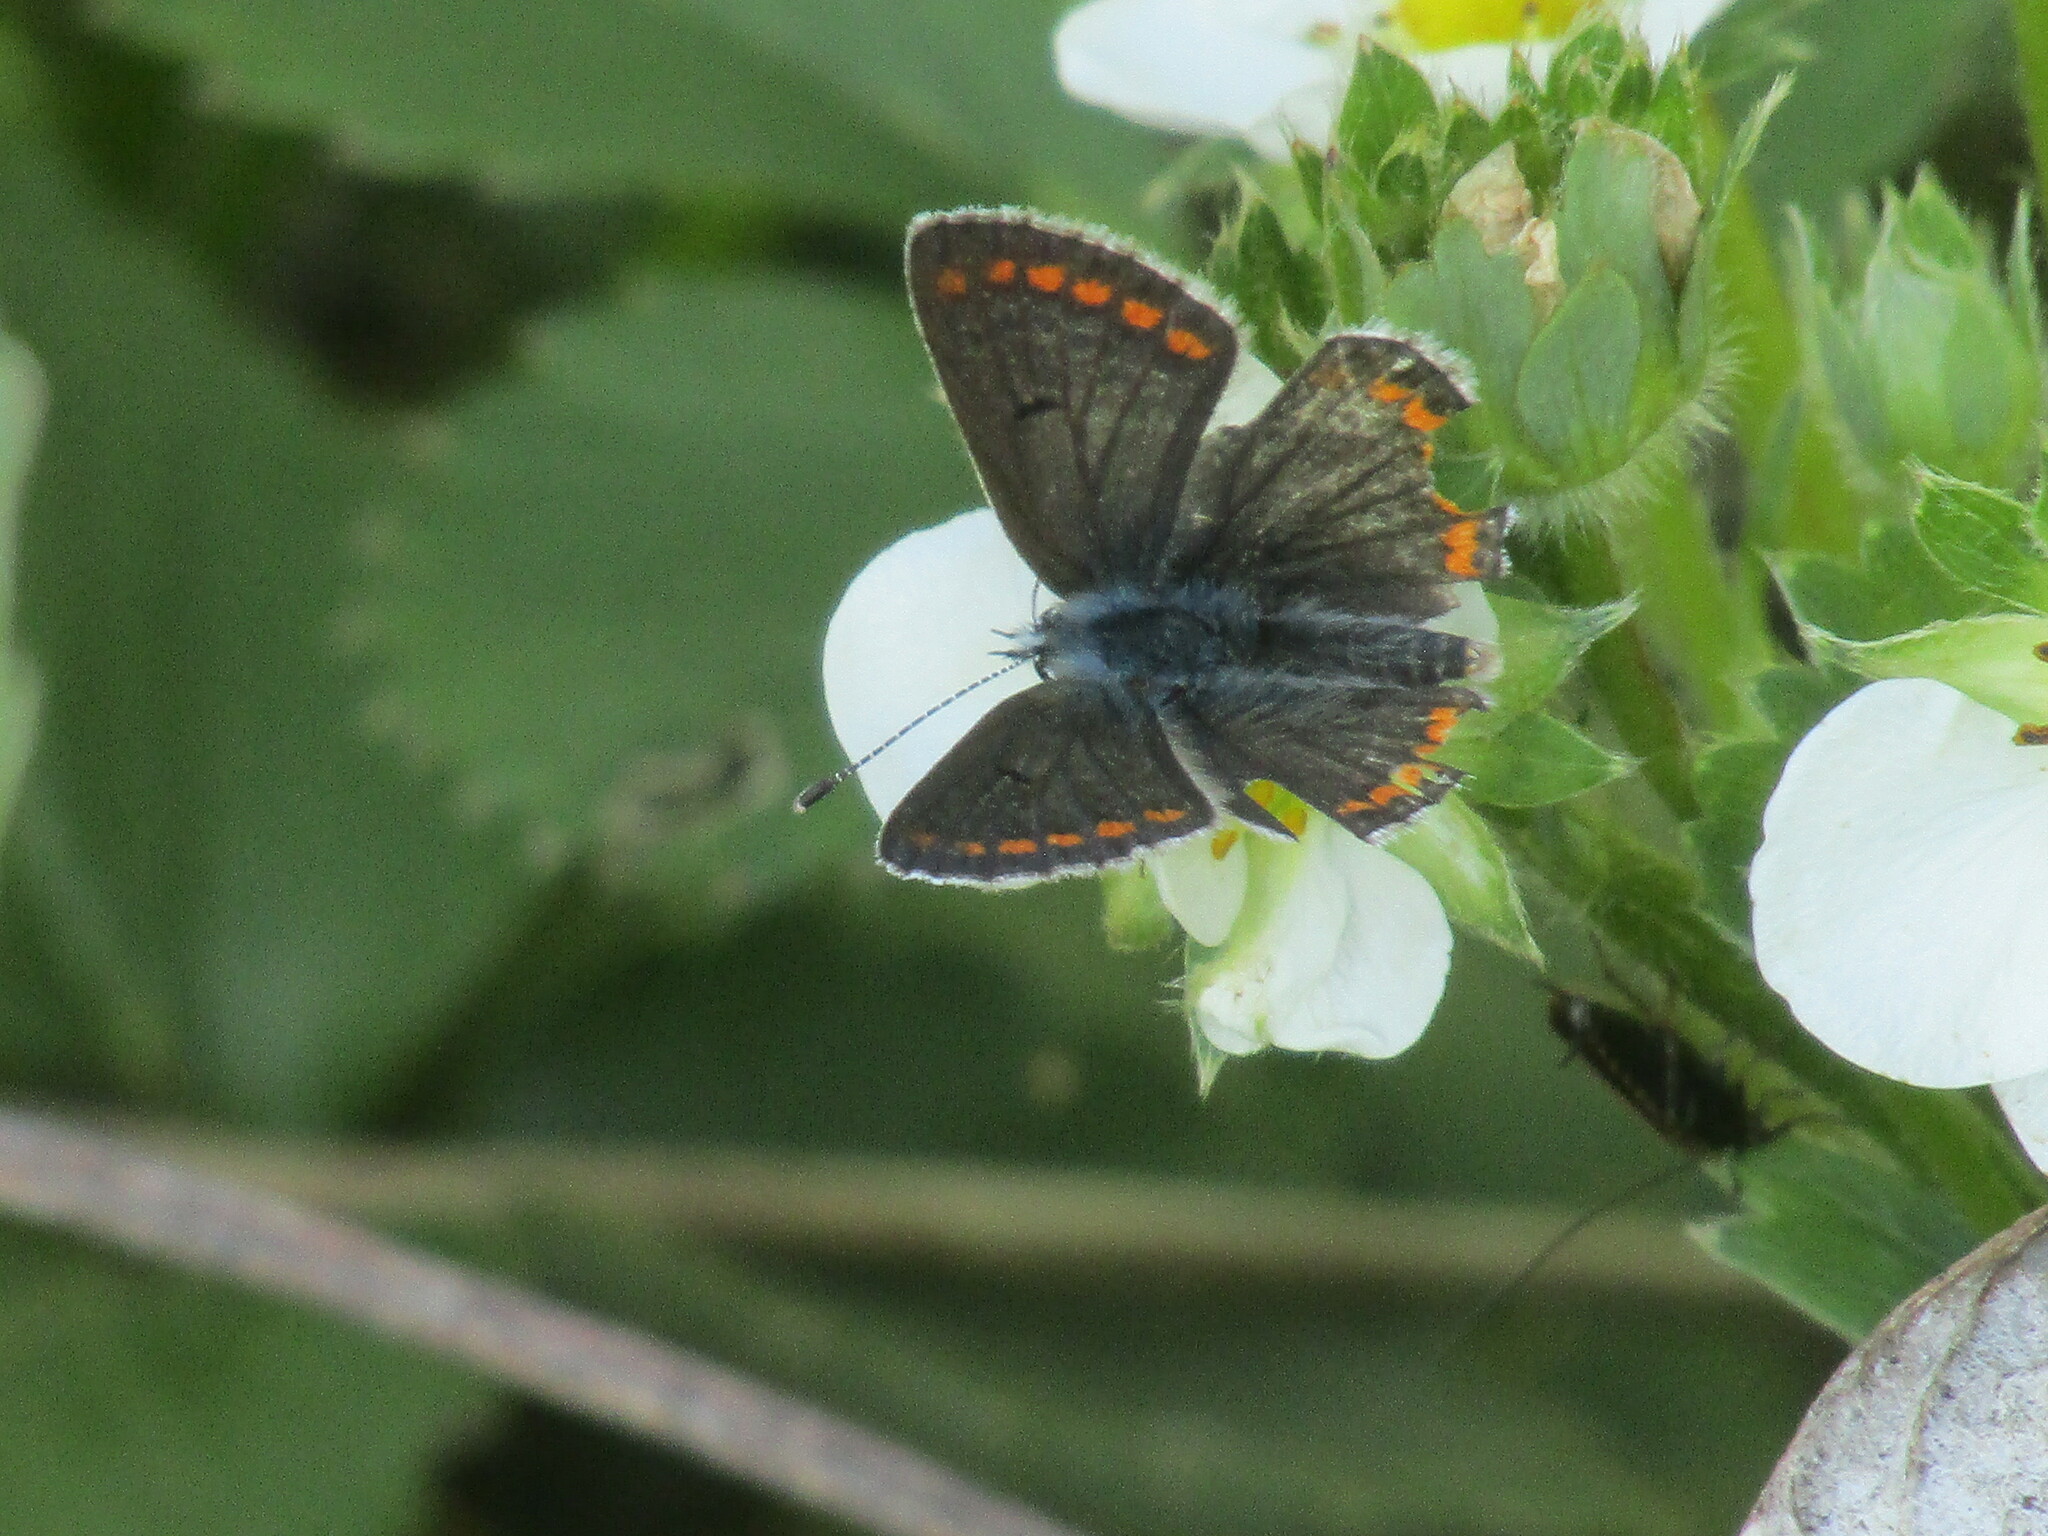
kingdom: Animalia
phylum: Arthropoda
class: Insecta
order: Lepidoptera
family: Lycaenidae
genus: Aricia
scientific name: Aricia agestis
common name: Brown argus
